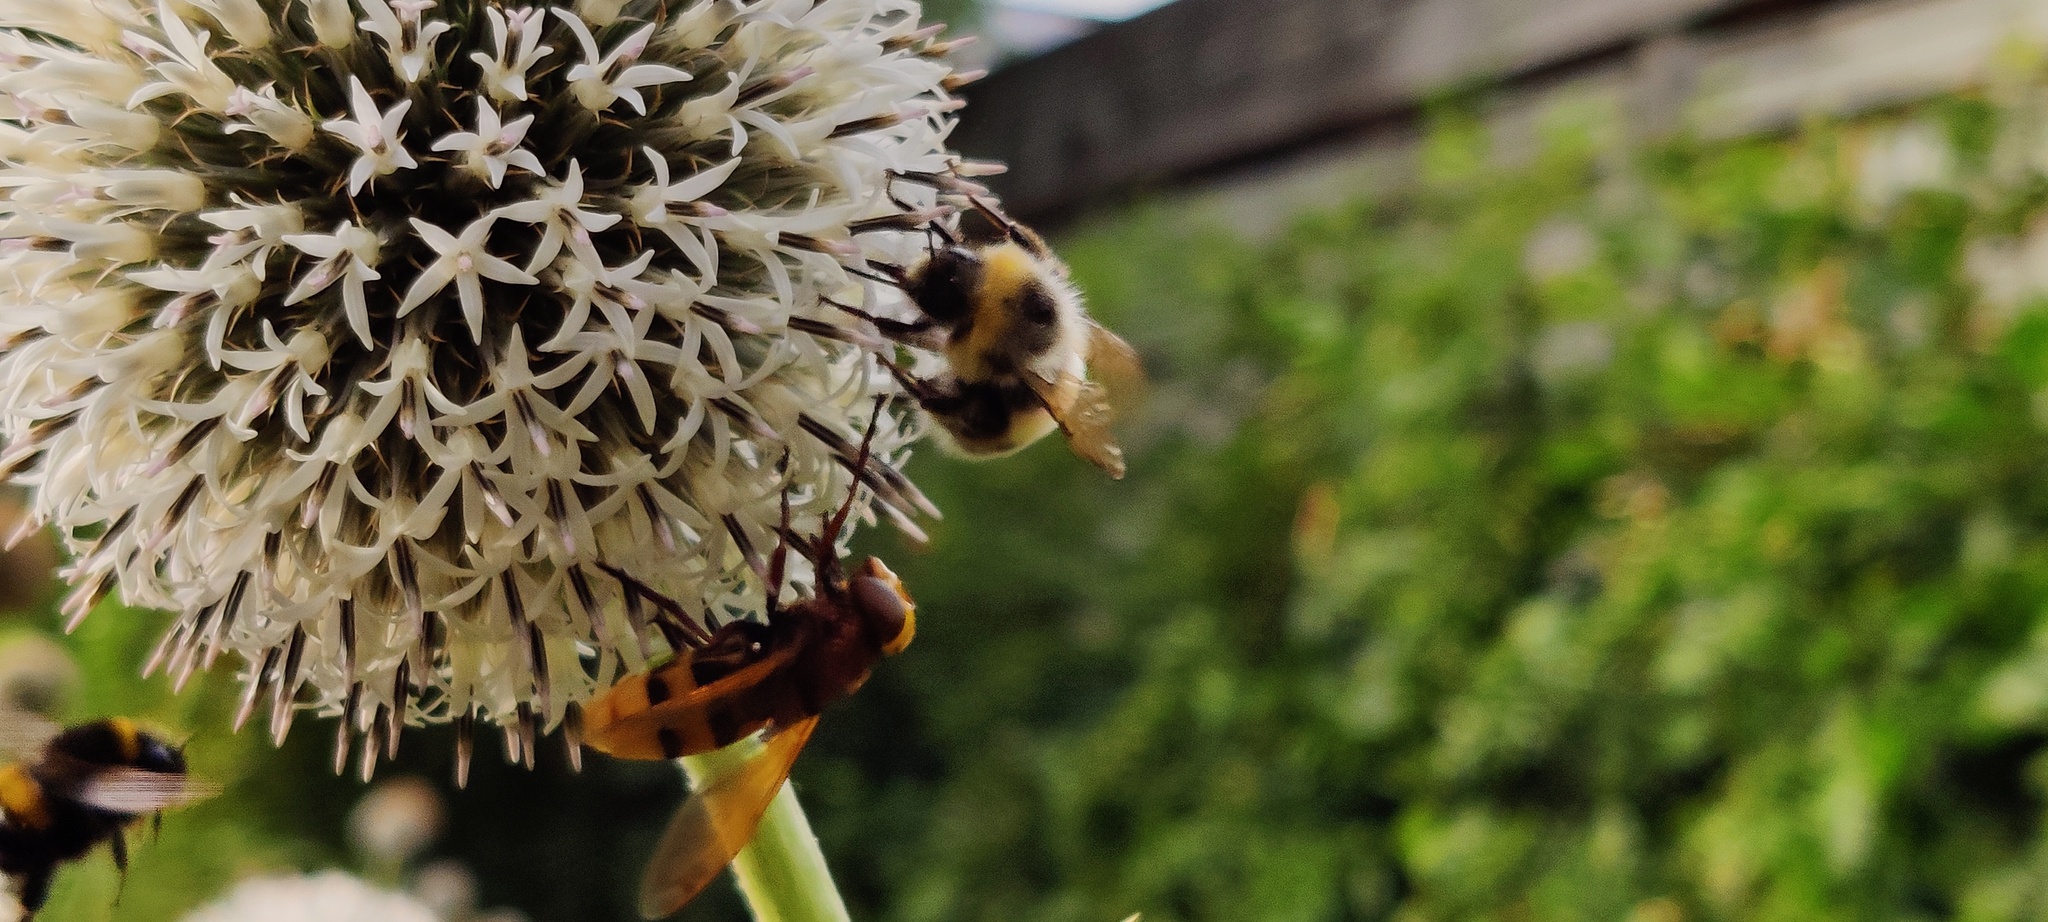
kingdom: Animalia
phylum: Arthropoda
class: Insecta
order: Diptera
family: Syrphidae
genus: Volucella
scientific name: Volucella zonaria
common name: Hornet hoverfly
